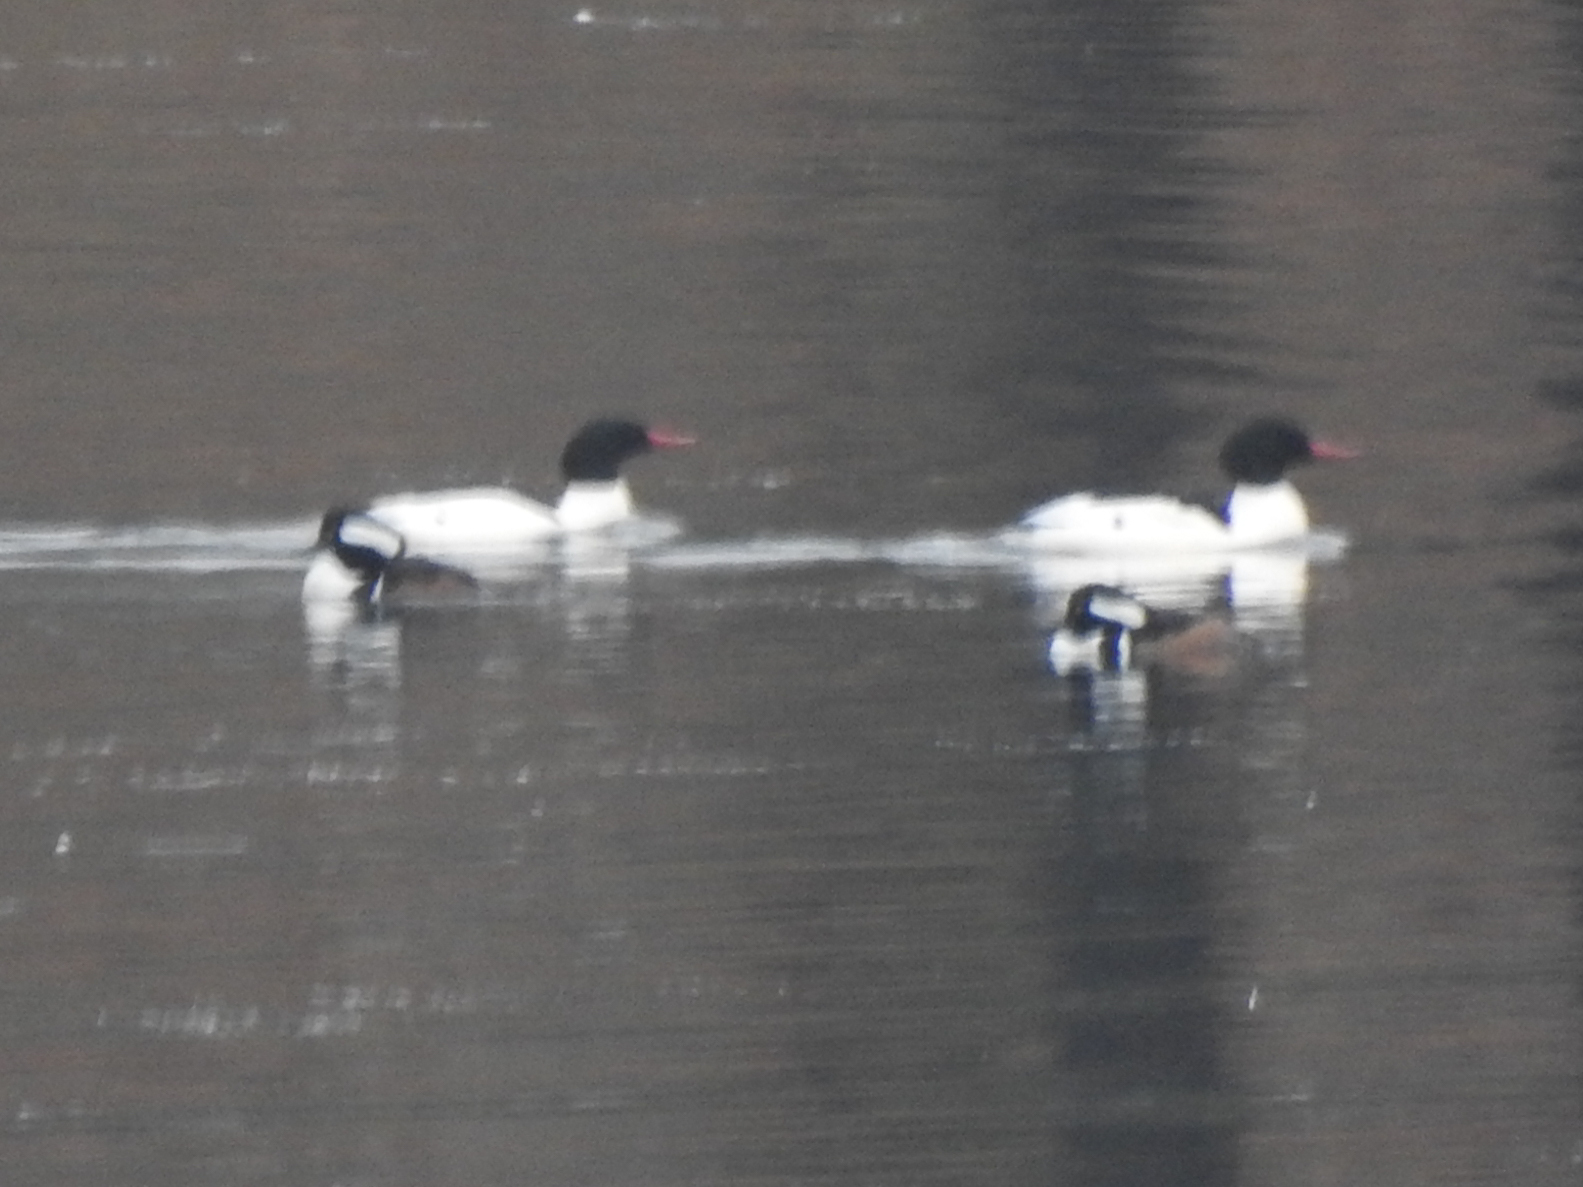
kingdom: Animalia
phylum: Chordata
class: Aves
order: Anseriformes
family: Anatidae
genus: Mergus
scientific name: Mergus merganser
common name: Common merganser
